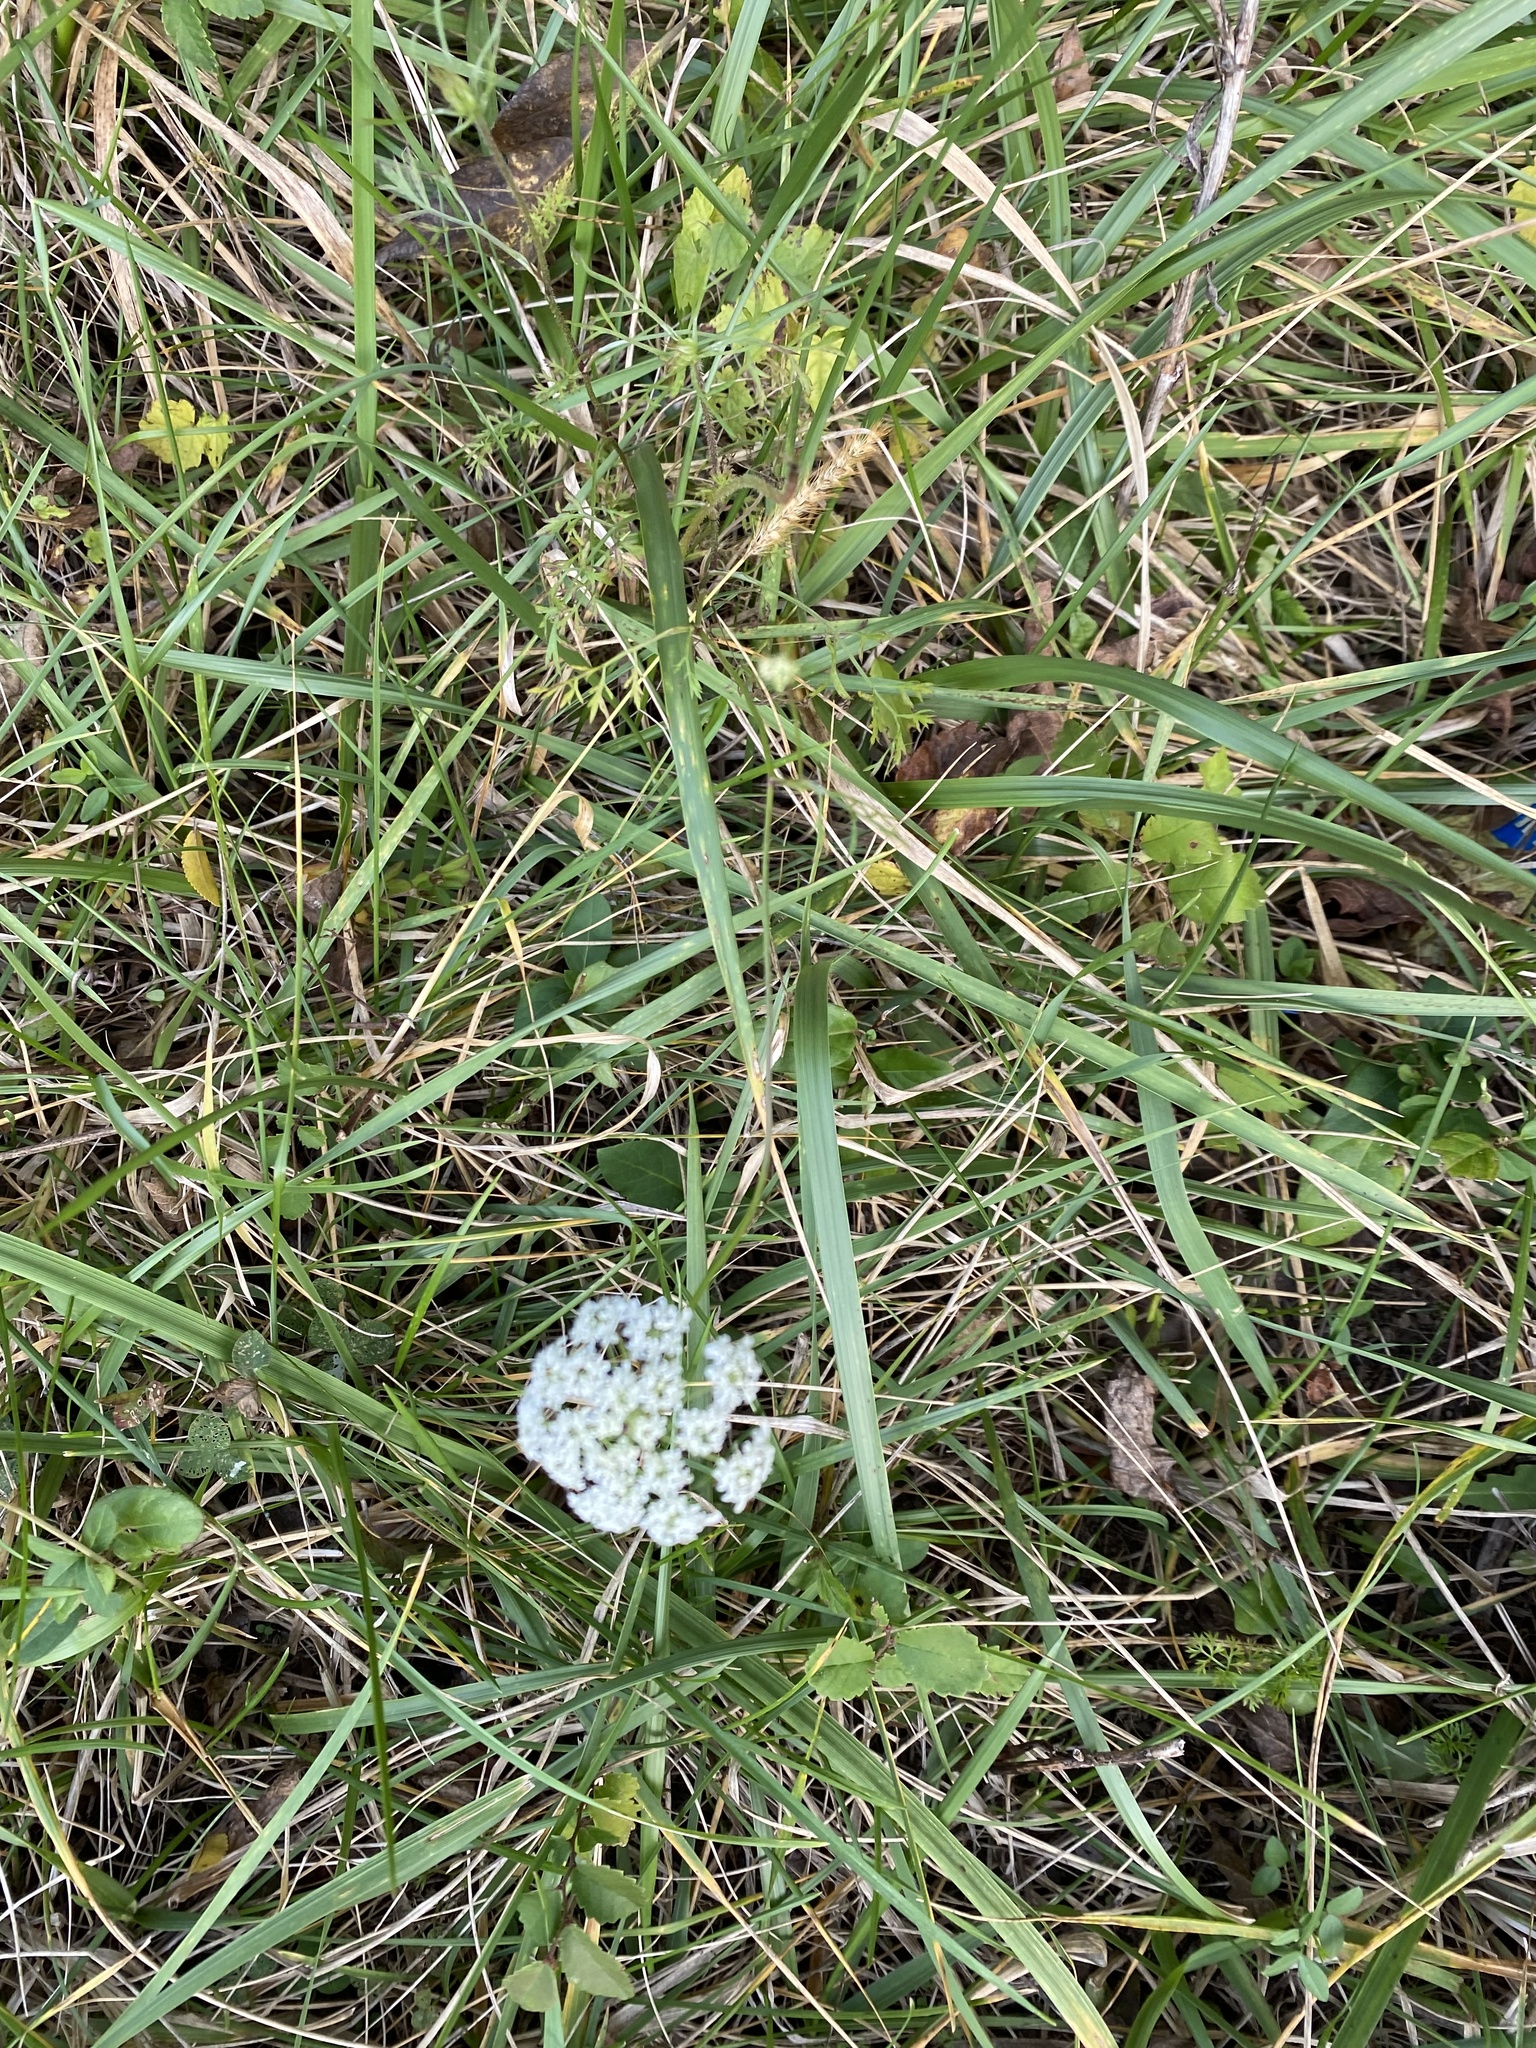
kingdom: Plantae
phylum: Tracheophyta
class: Magnoliopsida
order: Apiales
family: Apiaceae
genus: Daucus
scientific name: Daucus carota
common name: Wild carrot
